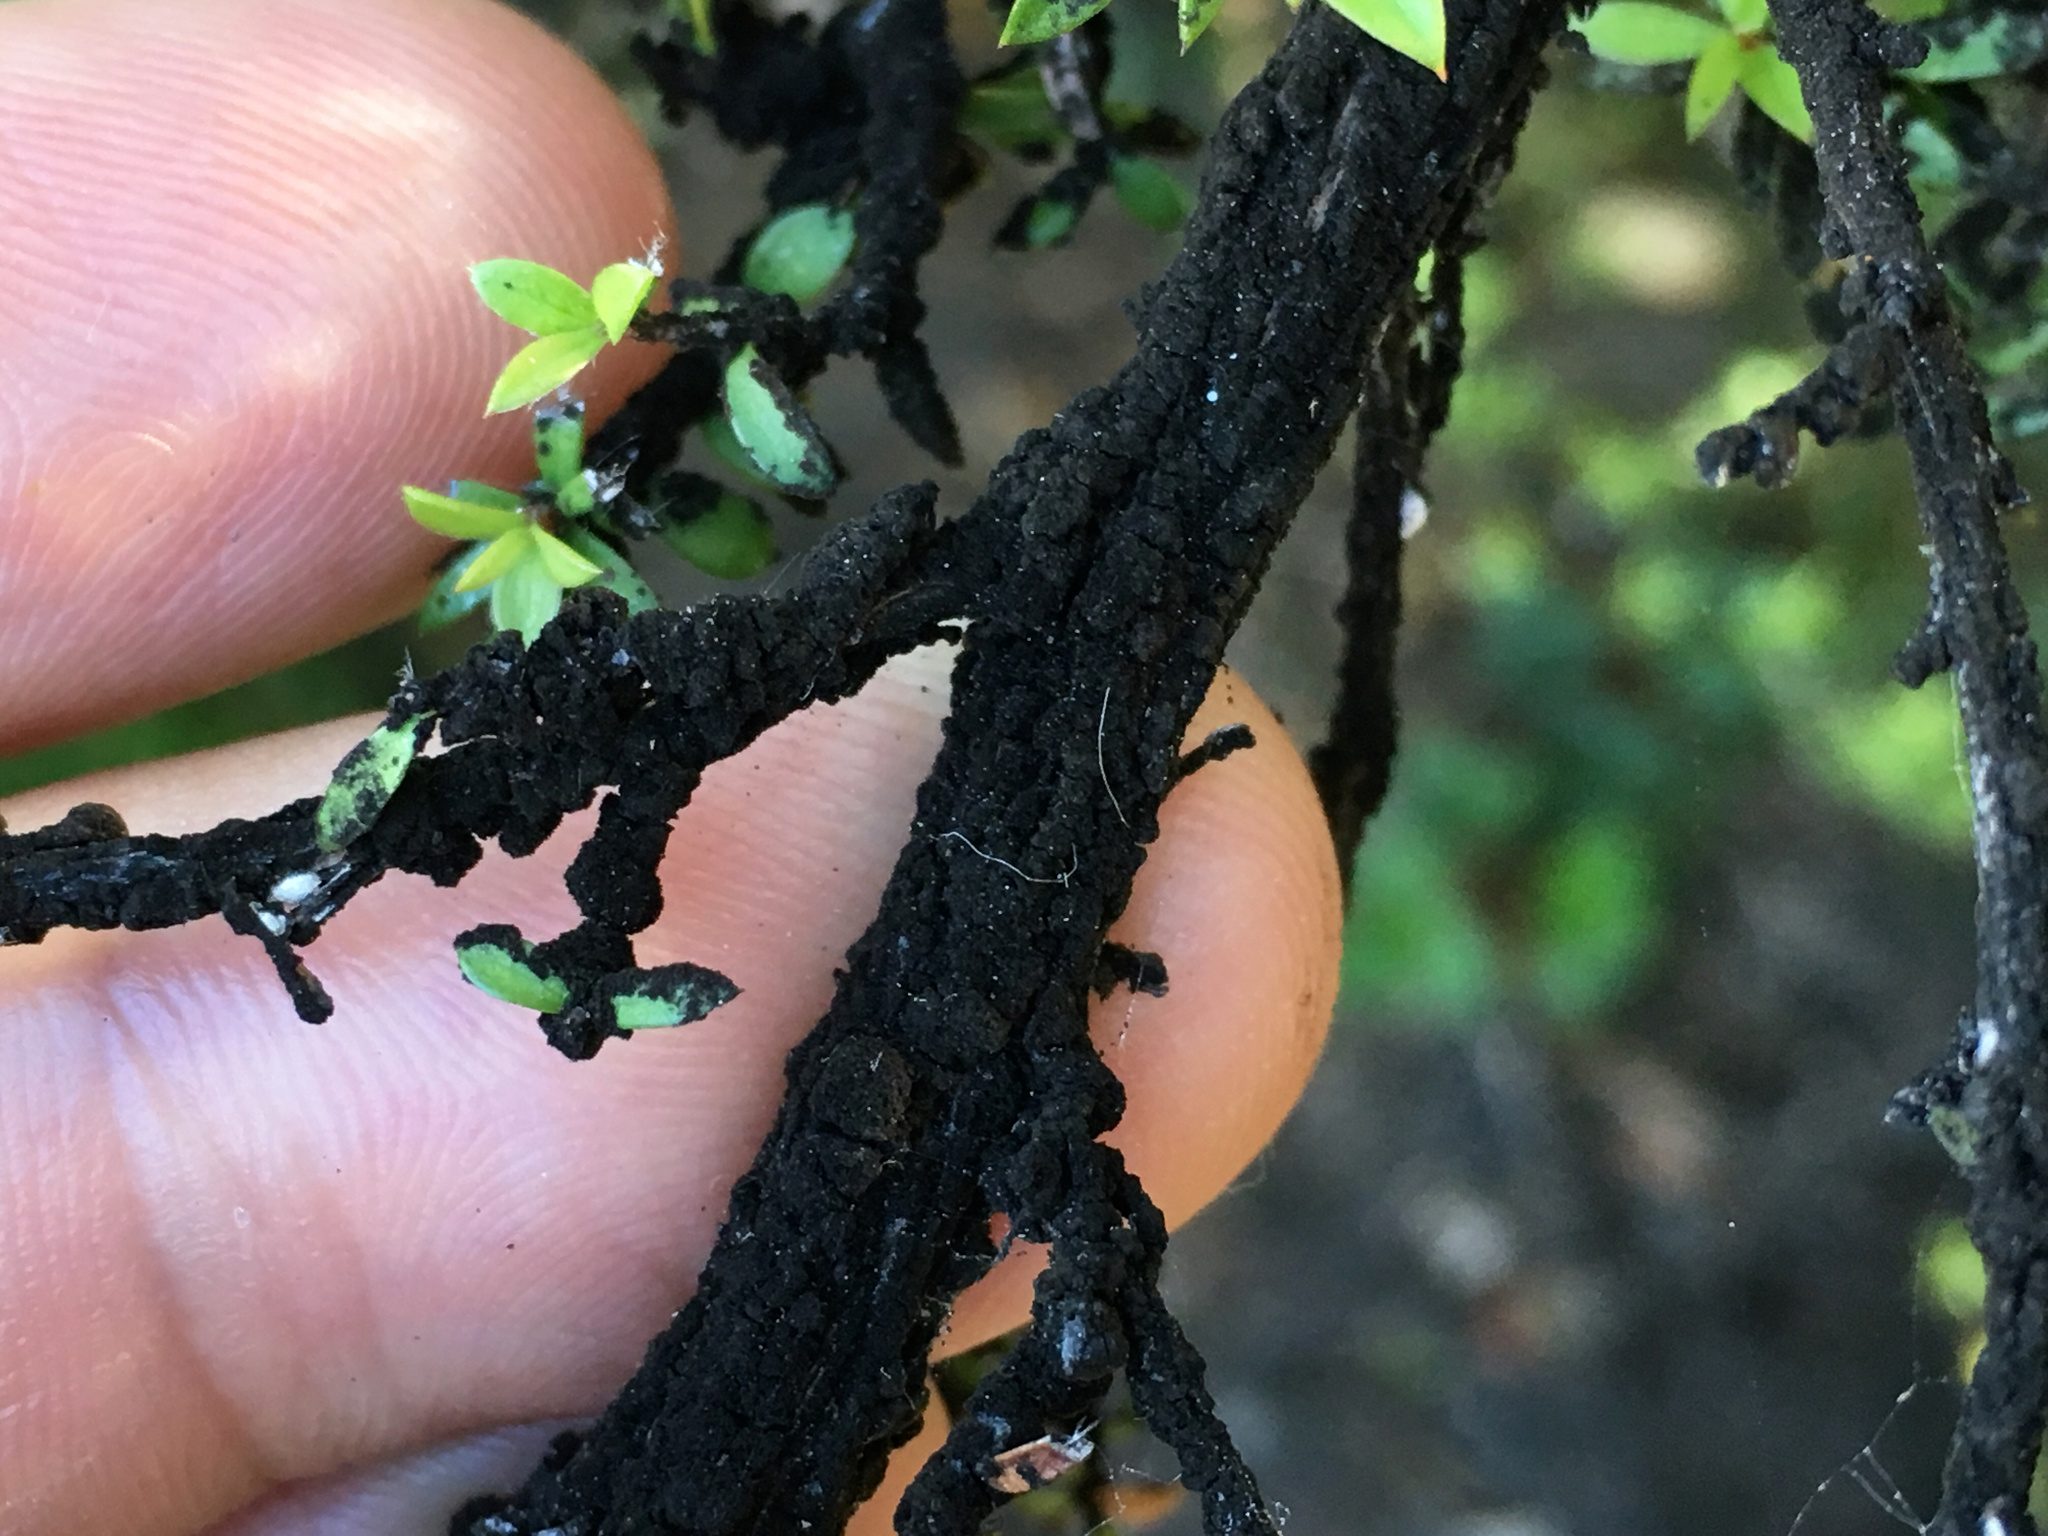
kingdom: Animalia
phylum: Arthropoda
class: Insecta
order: Hemiptera
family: Eriococcidae
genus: Eriococcus
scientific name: Eriococcus orariensis
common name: Manuka blight
